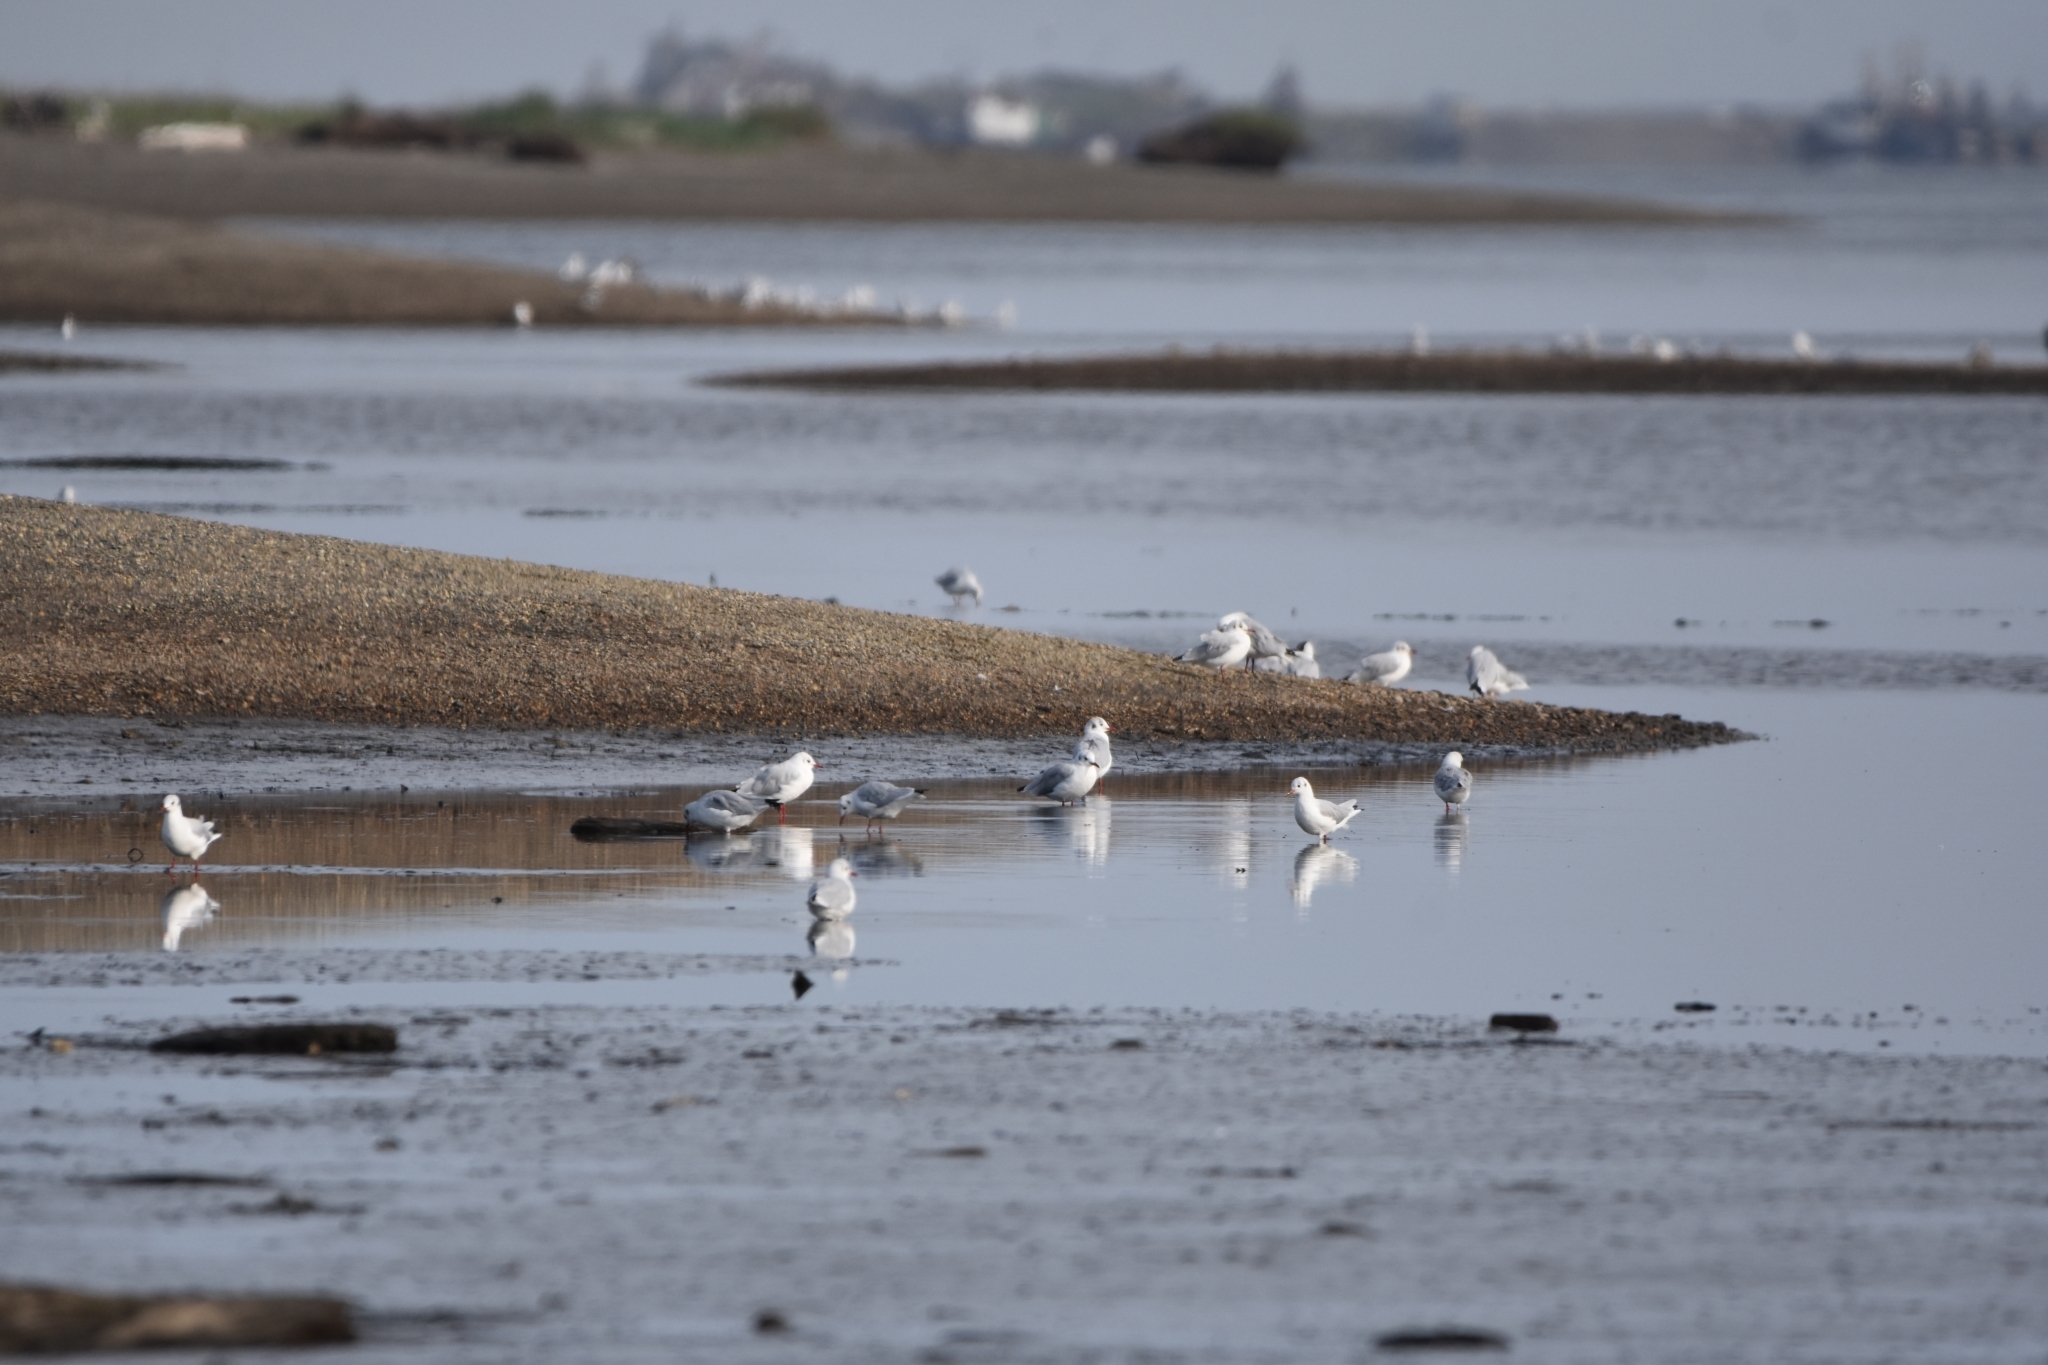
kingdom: Animalia
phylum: Chordata
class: Aves
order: Charadriiformes
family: Laridae
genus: Chroicocephalus
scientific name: Chroicocephalus ridibundus
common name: Black-headed gull
